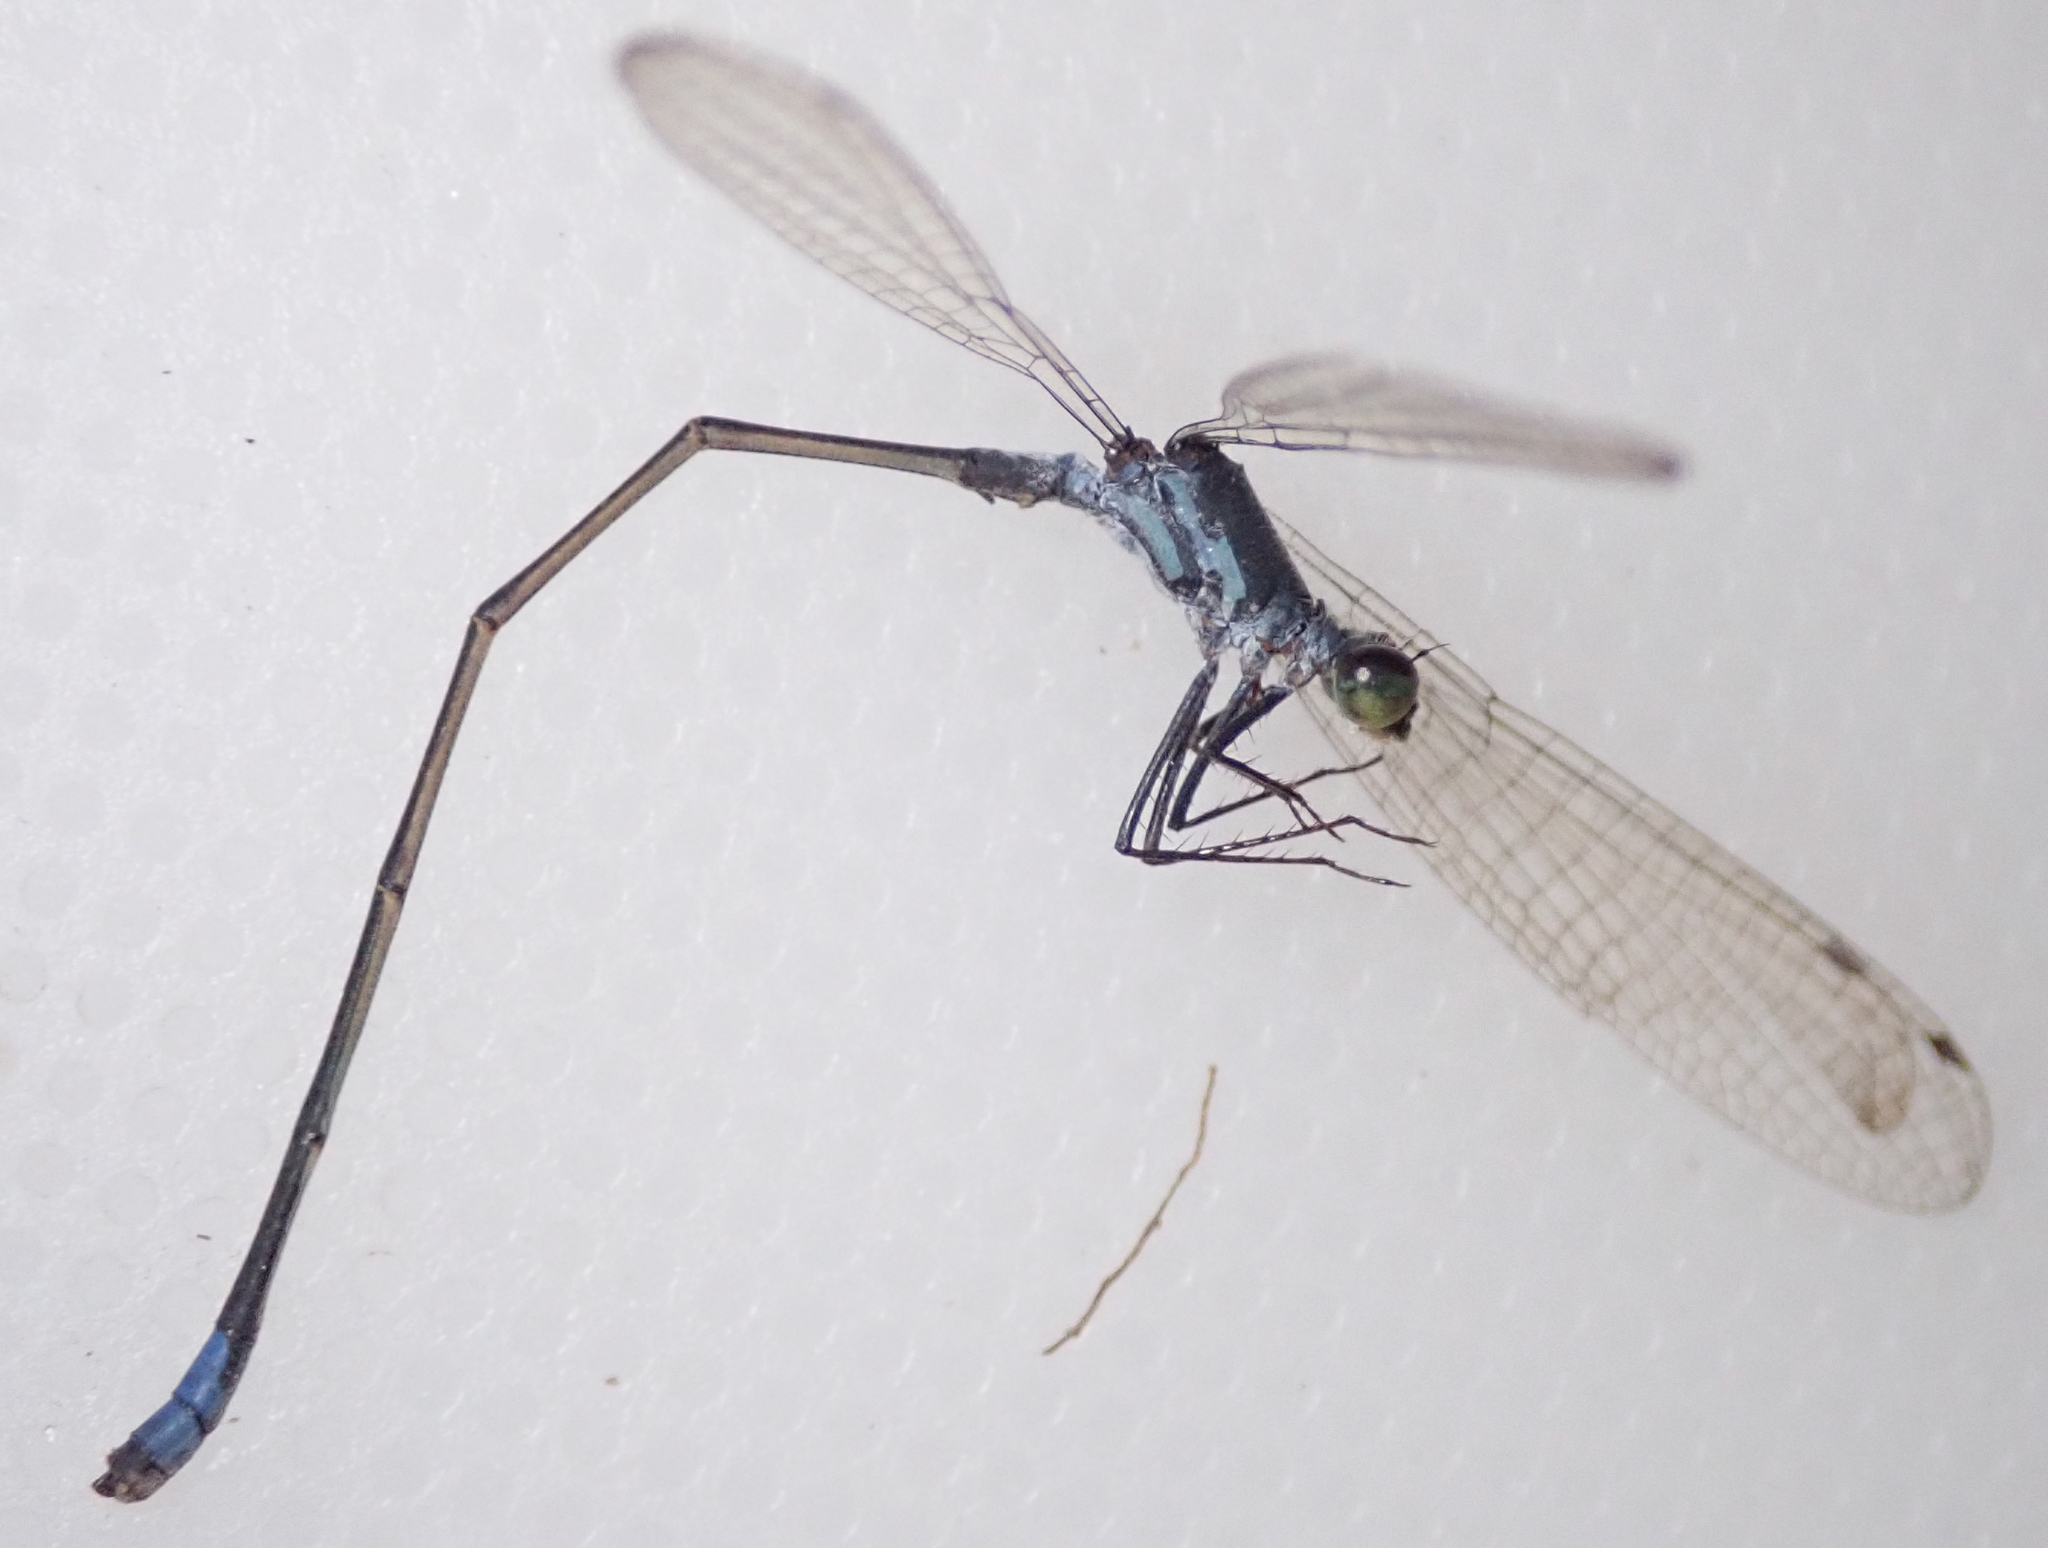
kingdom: Animalia
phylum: Arthropoda
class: Insecta
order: Odonata
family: Coenagrionidae
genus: Pseudagrion
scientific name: Pseudagrion deningi
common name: Dening's sprite
